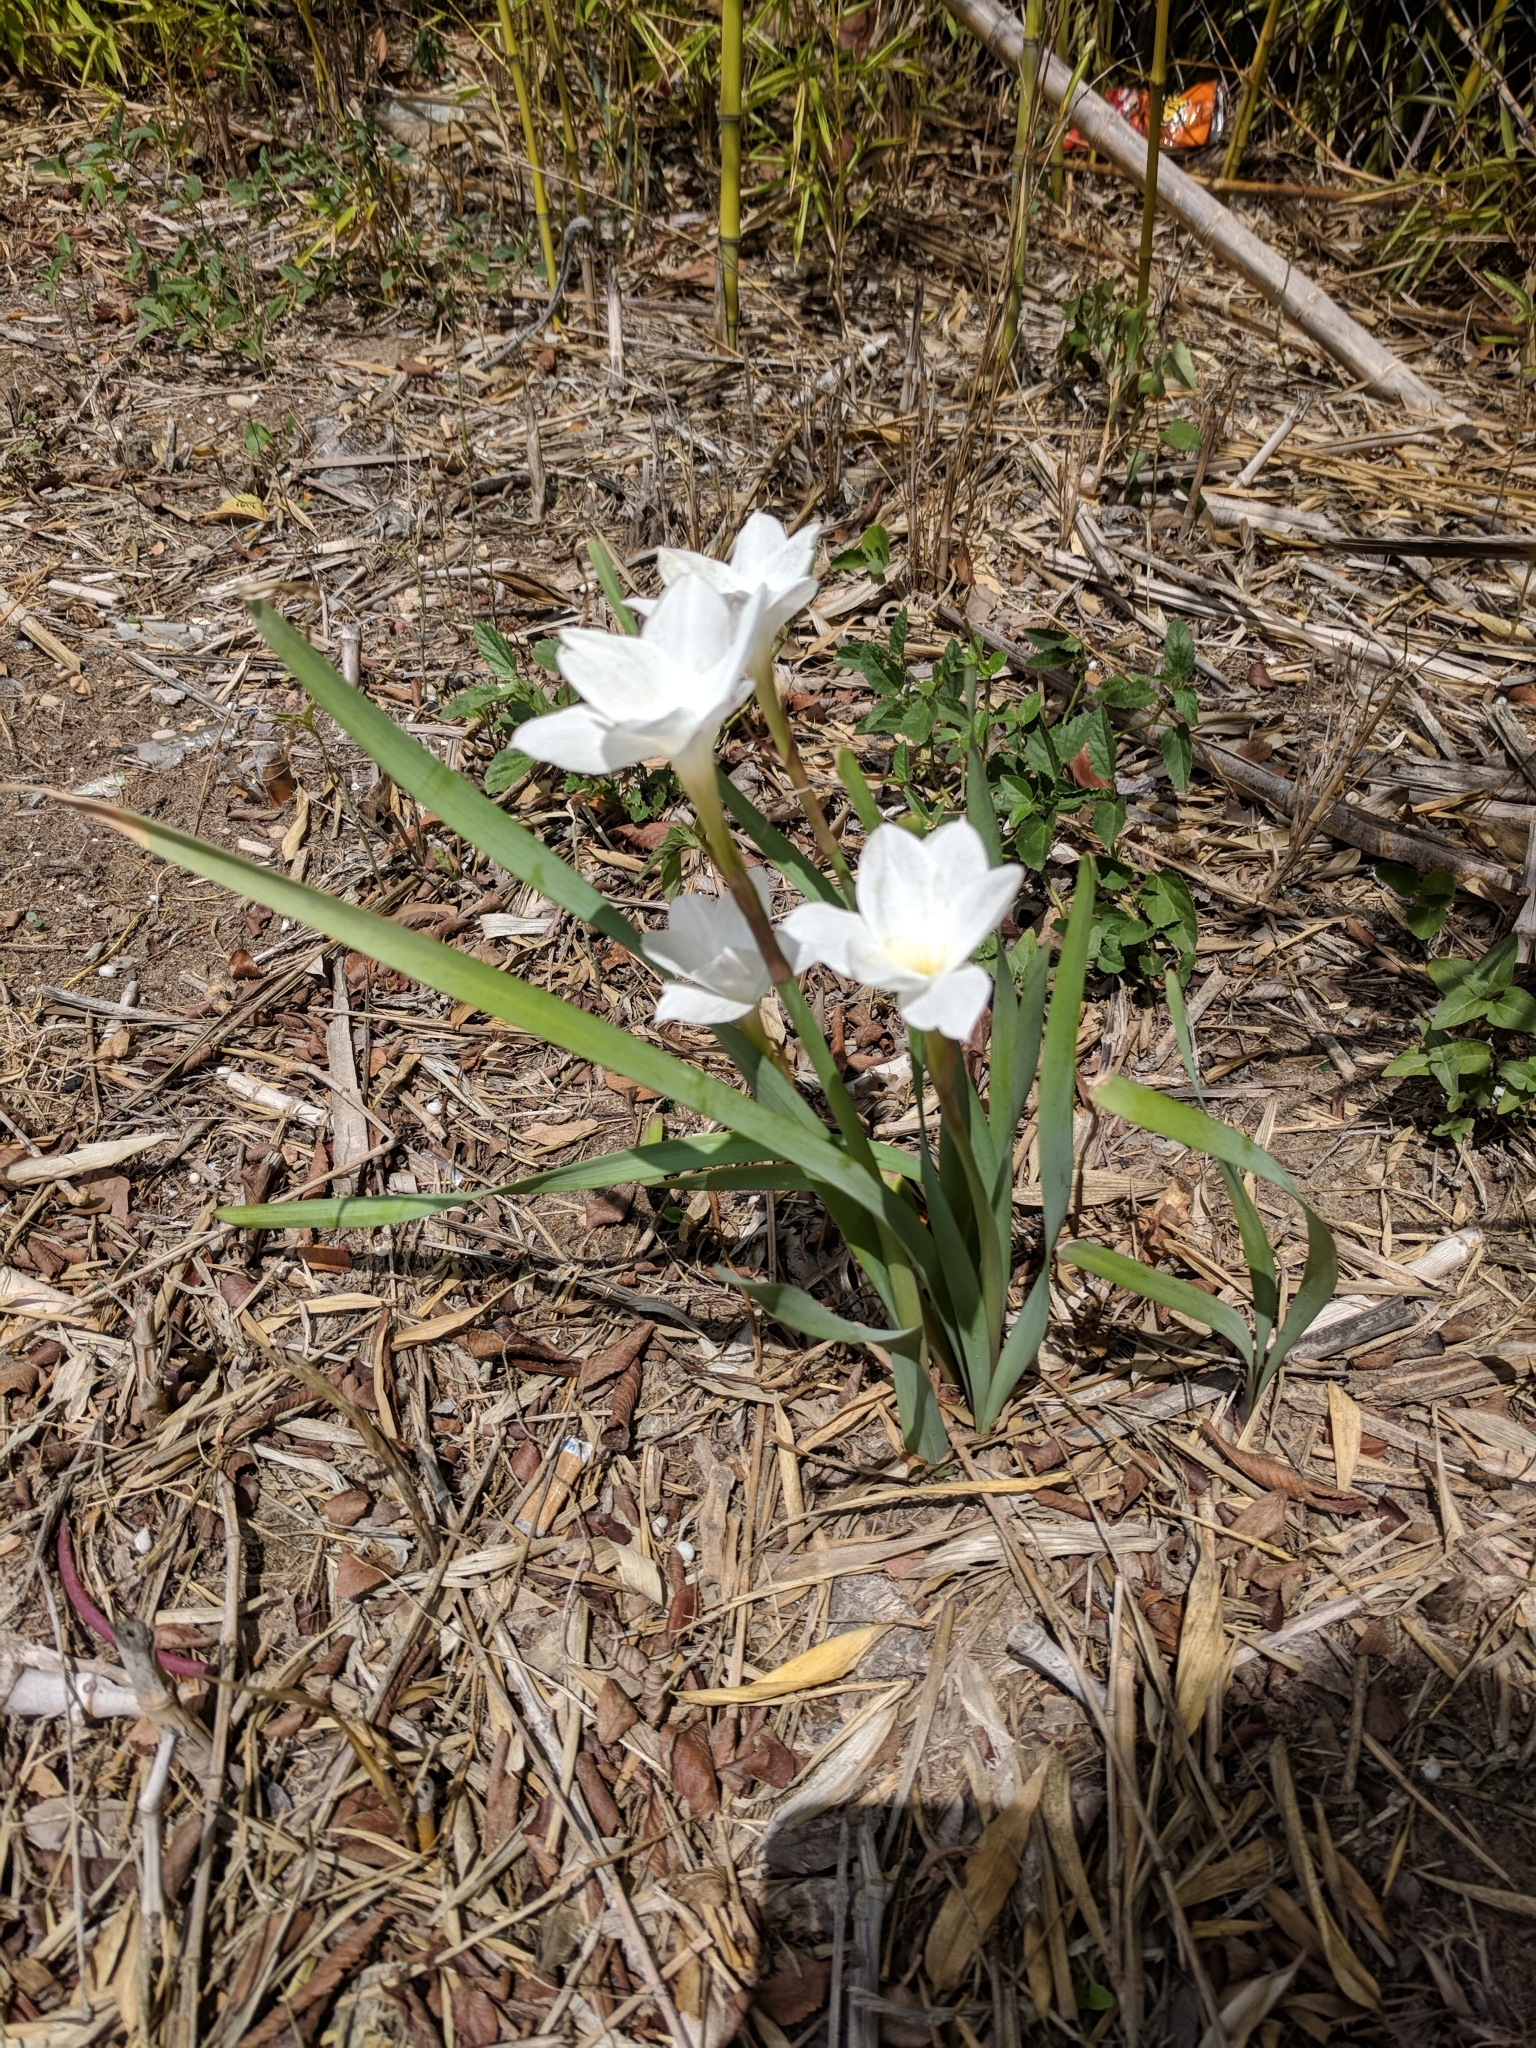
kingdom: Plantae
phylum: Tracheophyta
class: Liliopsida
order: Asparagales
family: Amaryllidaceae
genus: Zephyranthes
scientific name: Zephyranthes drummondii
